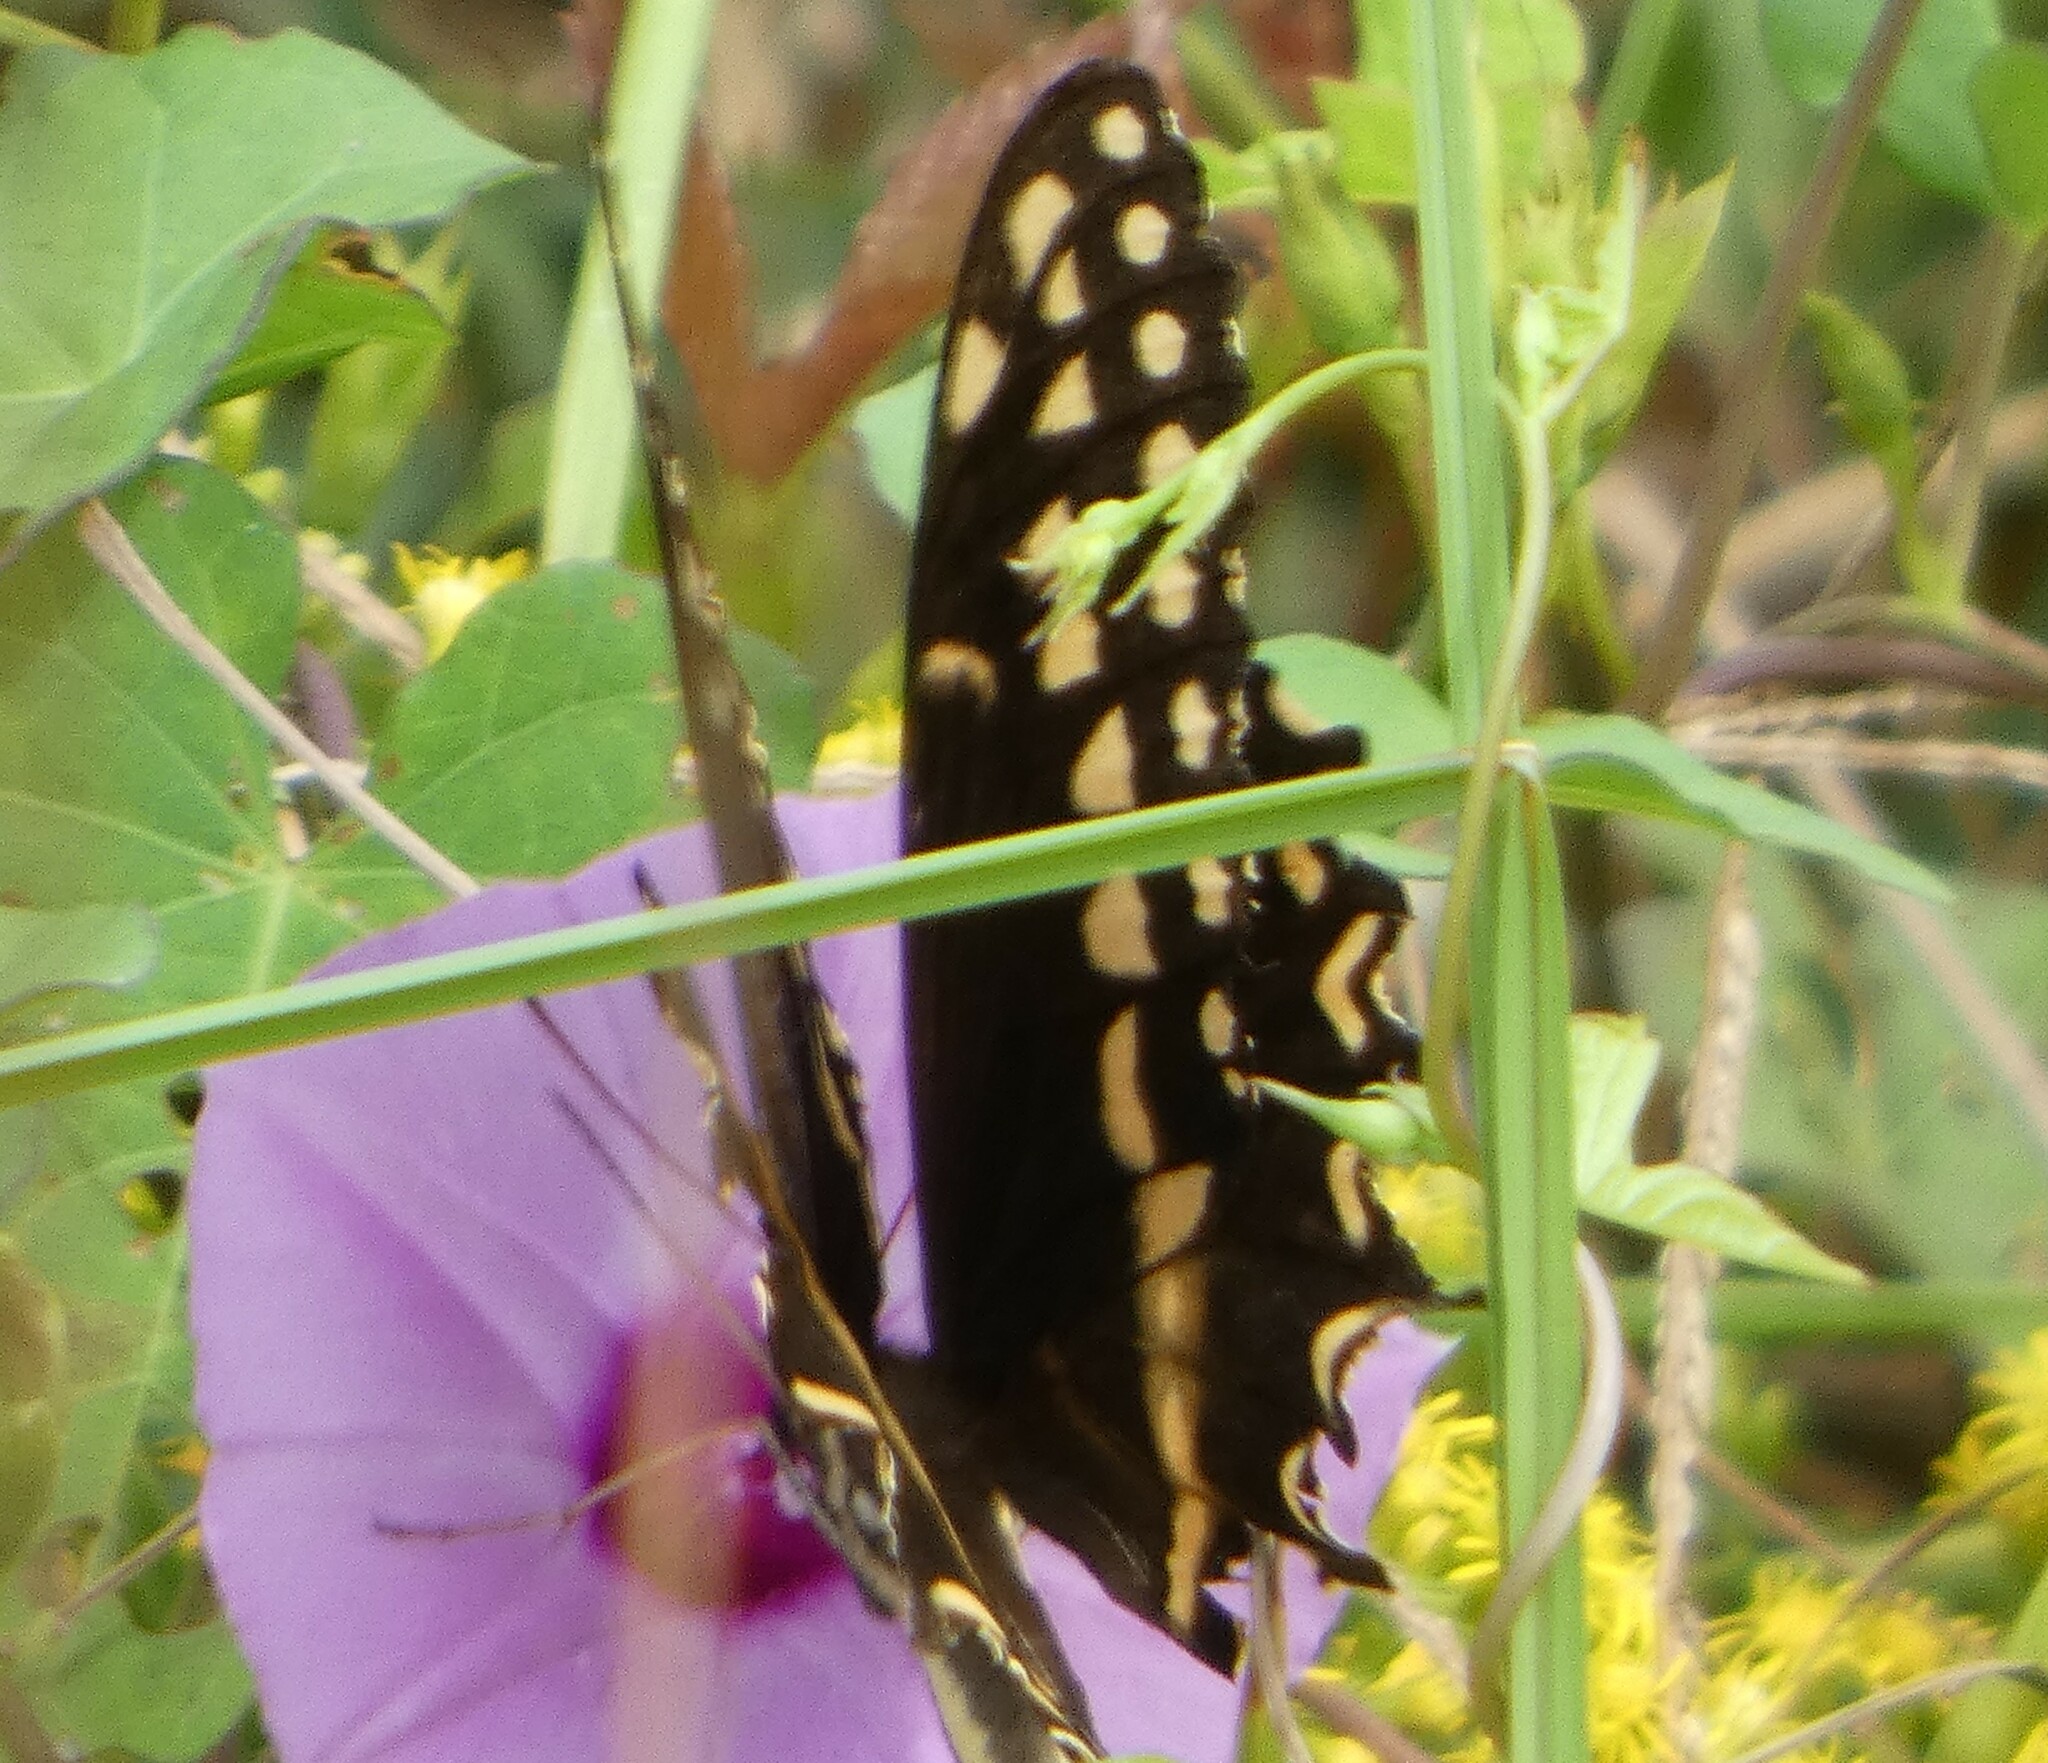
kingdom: Animalia
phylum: Arthropoda
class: Insecta
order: Lepidoptera
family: Papilionidae
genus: Papilio
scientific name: Papilio palamedes
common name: Palamedes swallowtail
